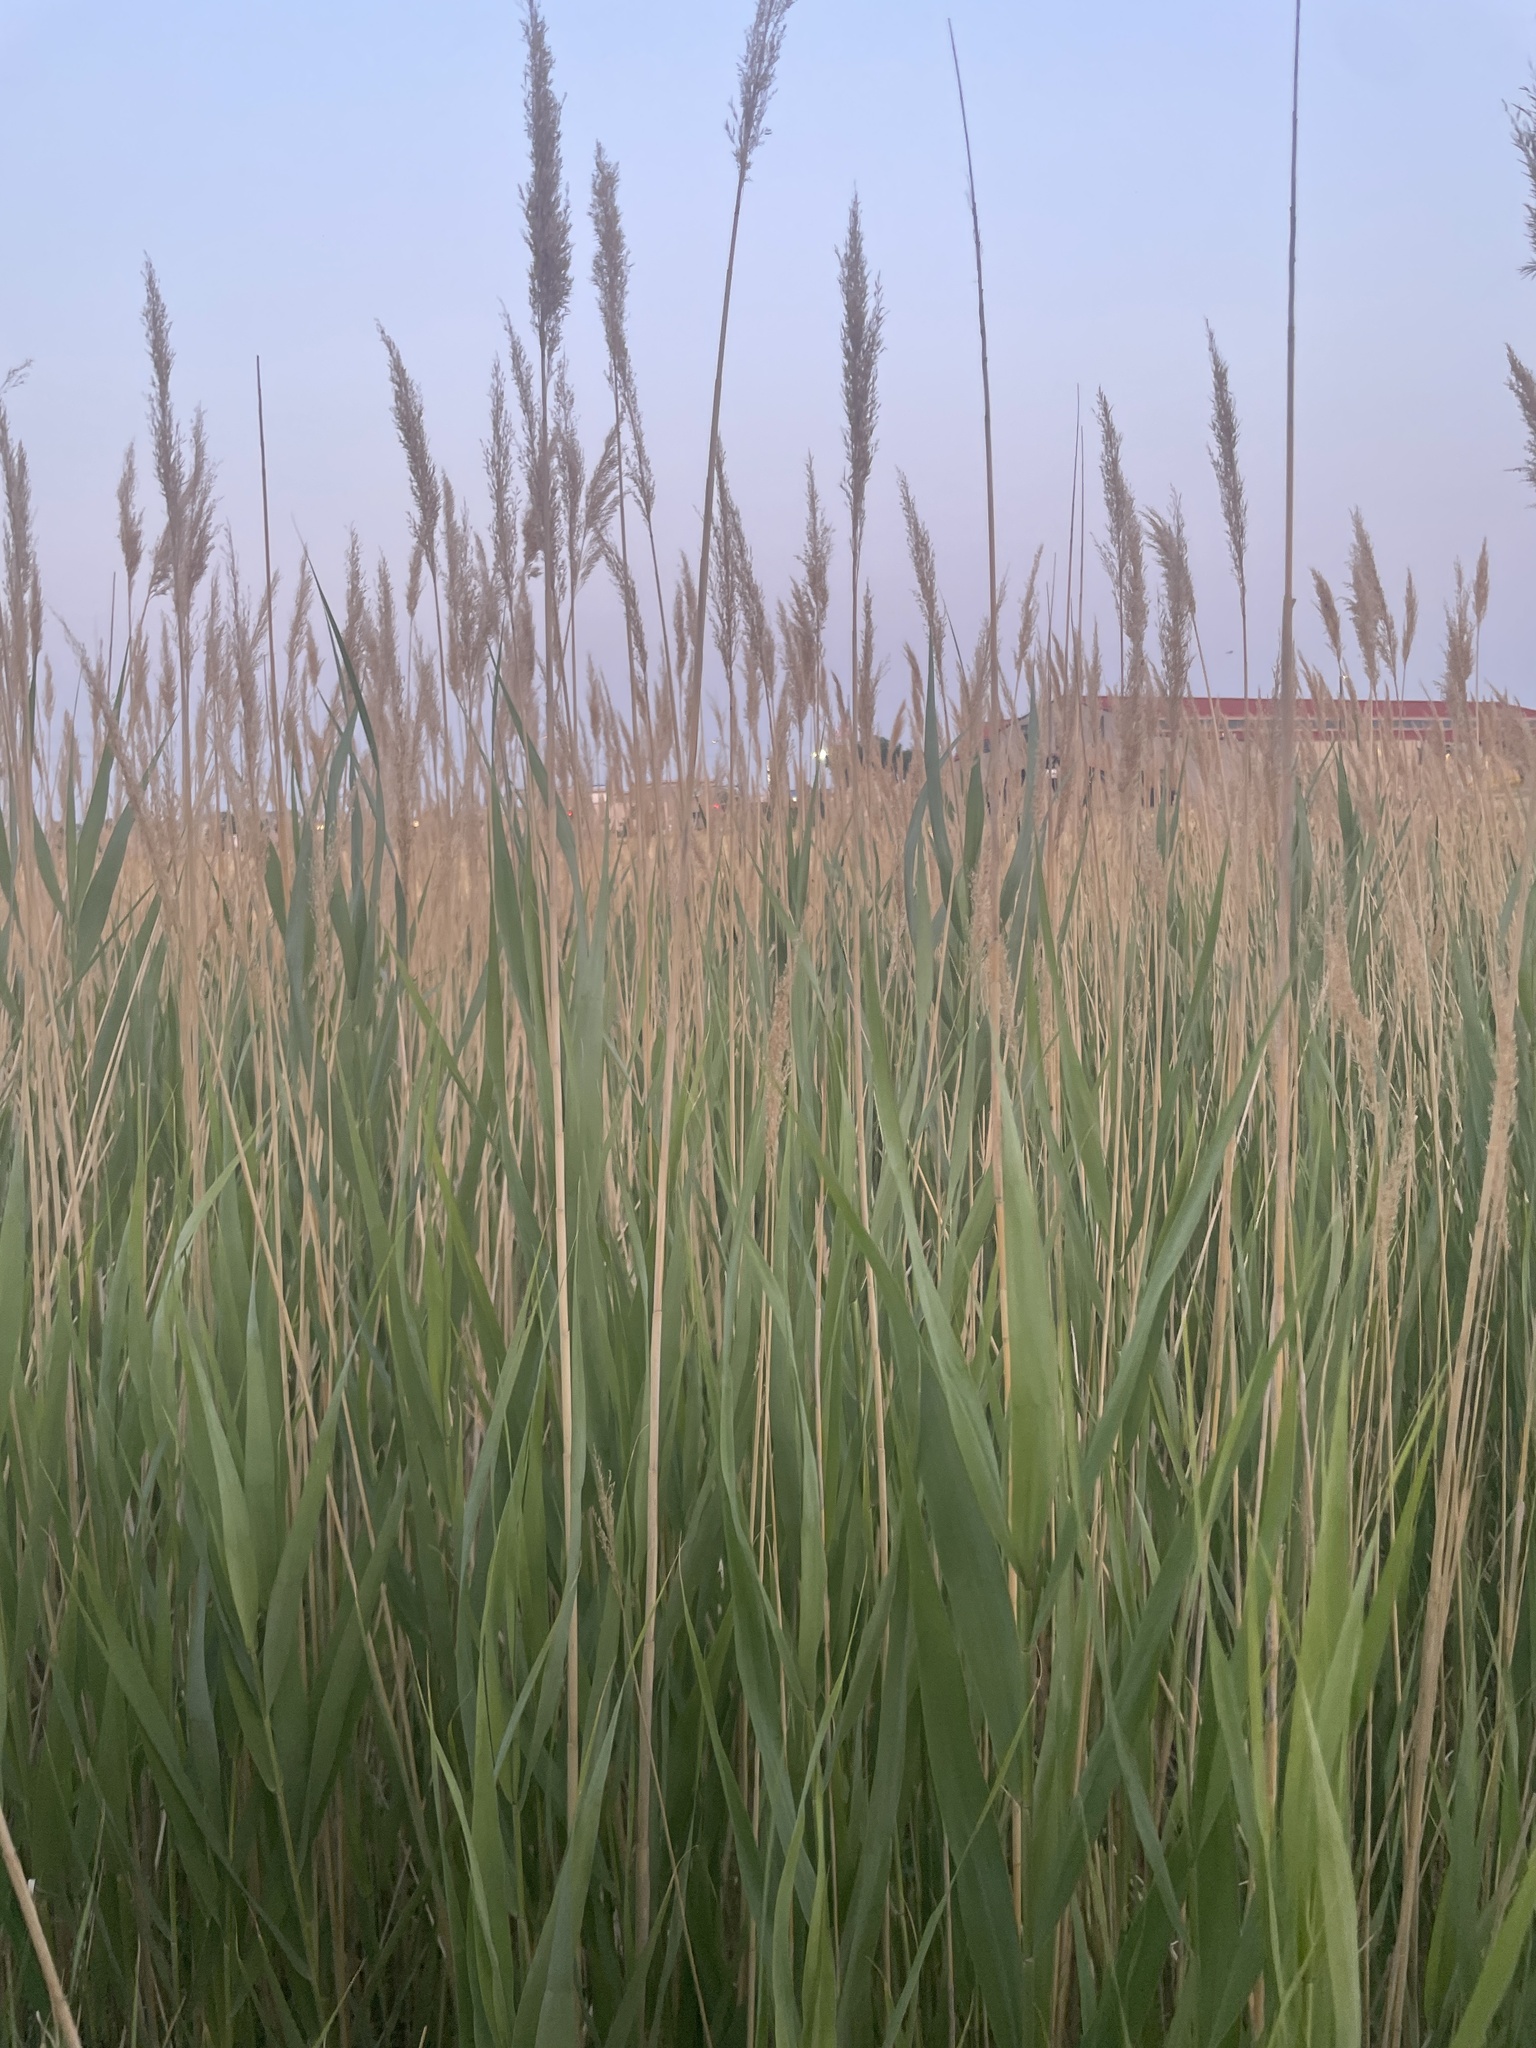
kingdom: Plantae
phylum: Tracheophyta
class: Liliopsida
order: Poales
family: Poaceae
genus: Phragmites
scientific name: Phragmites australis
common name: Common reed
